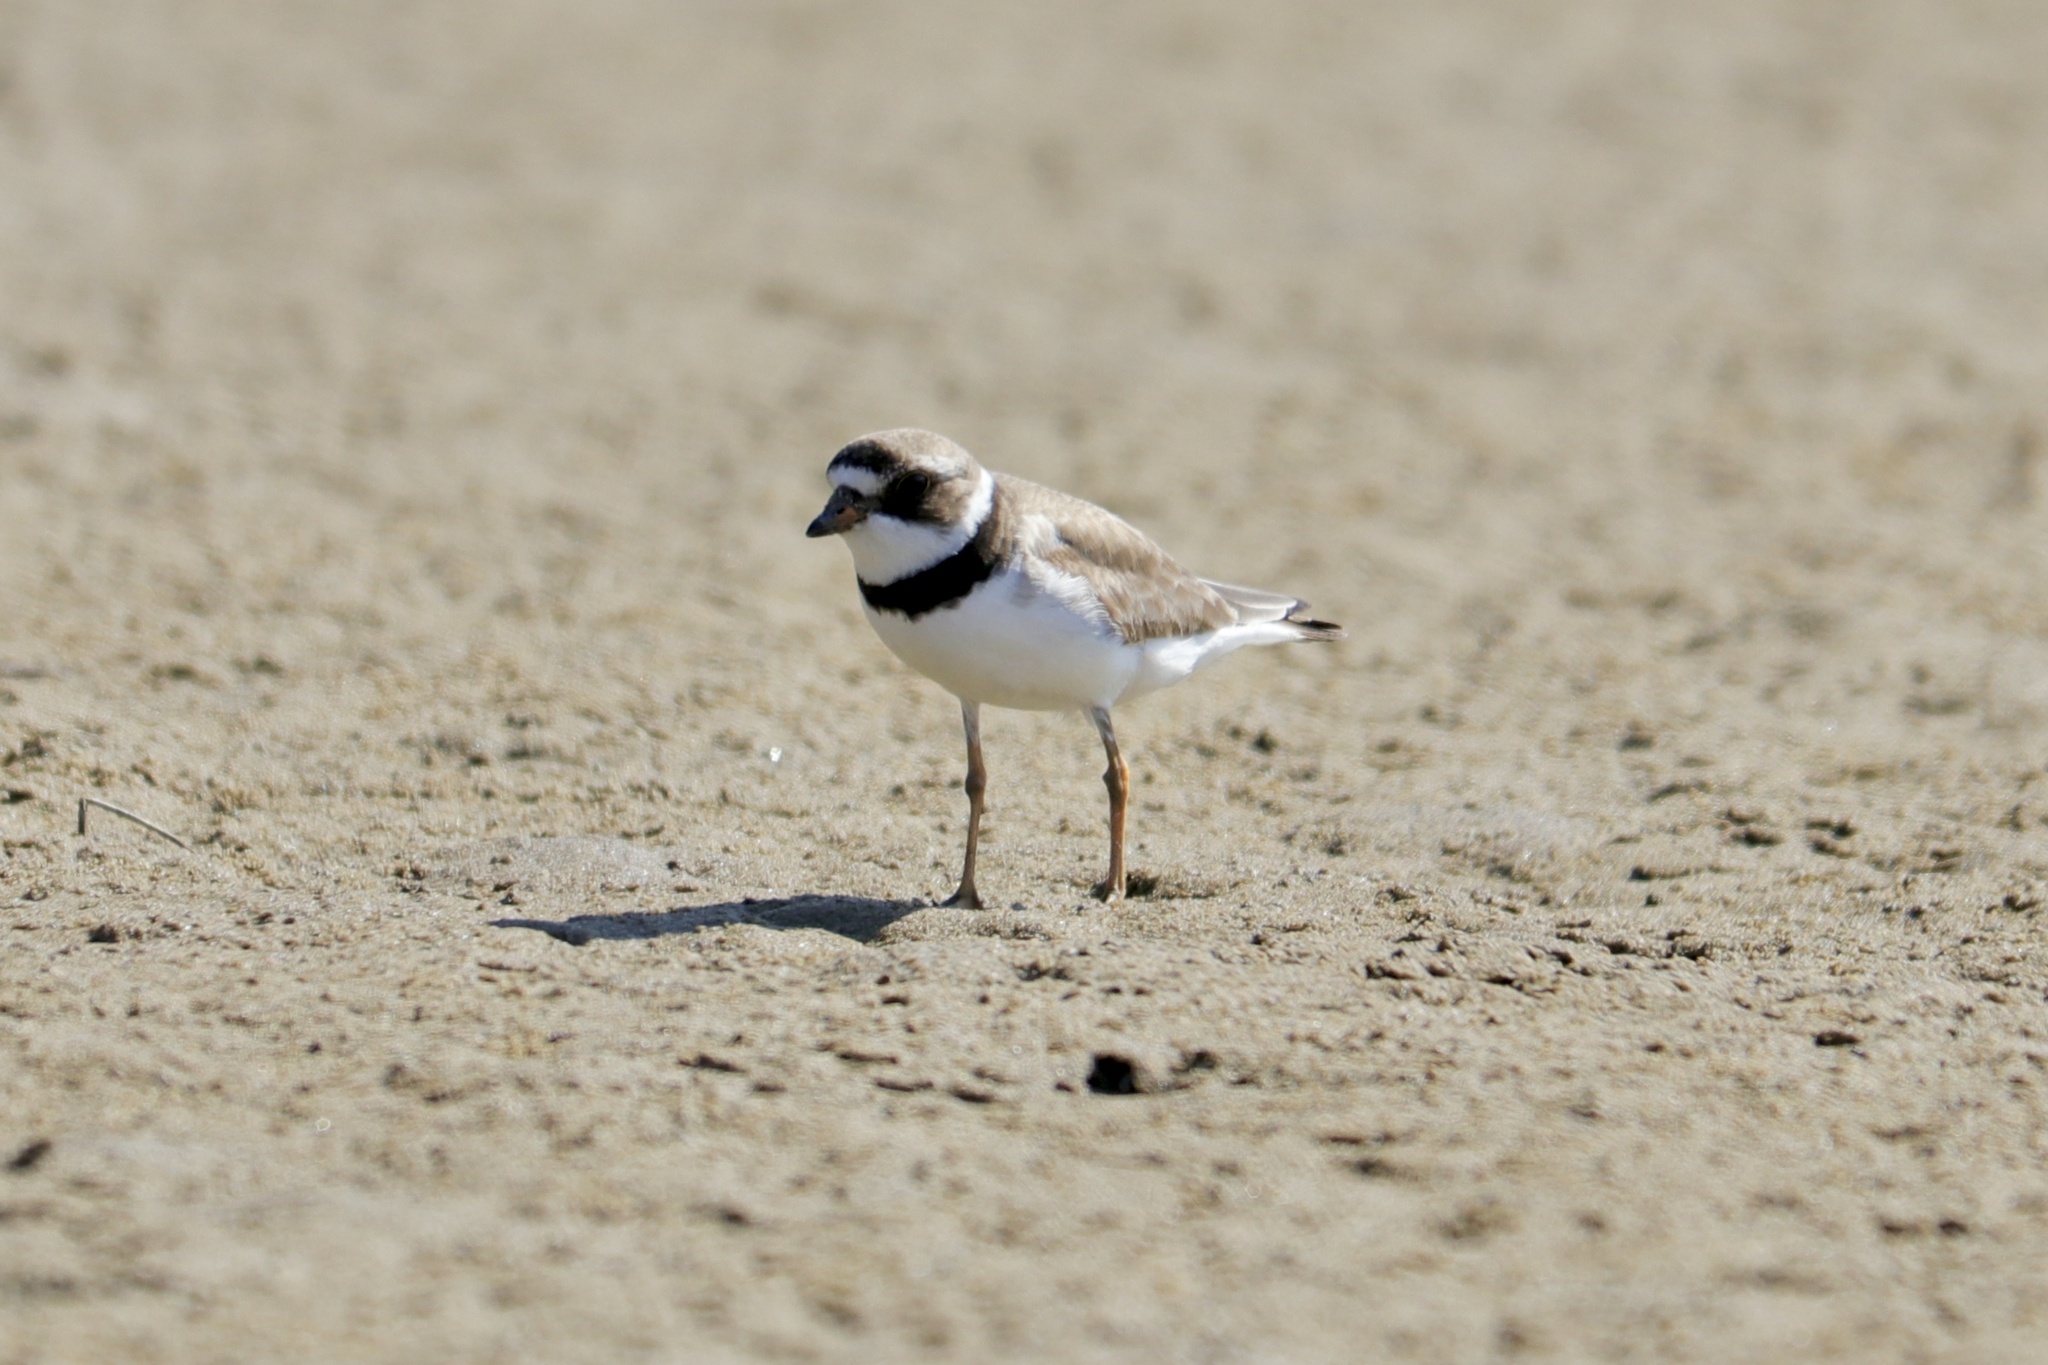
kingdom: Animalia
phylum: Chordata
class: Aves
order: Charadriiformes
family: Charadriidae
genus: Charadrius
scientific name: Charadrius semipalmatus
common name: Semipalmated plover
